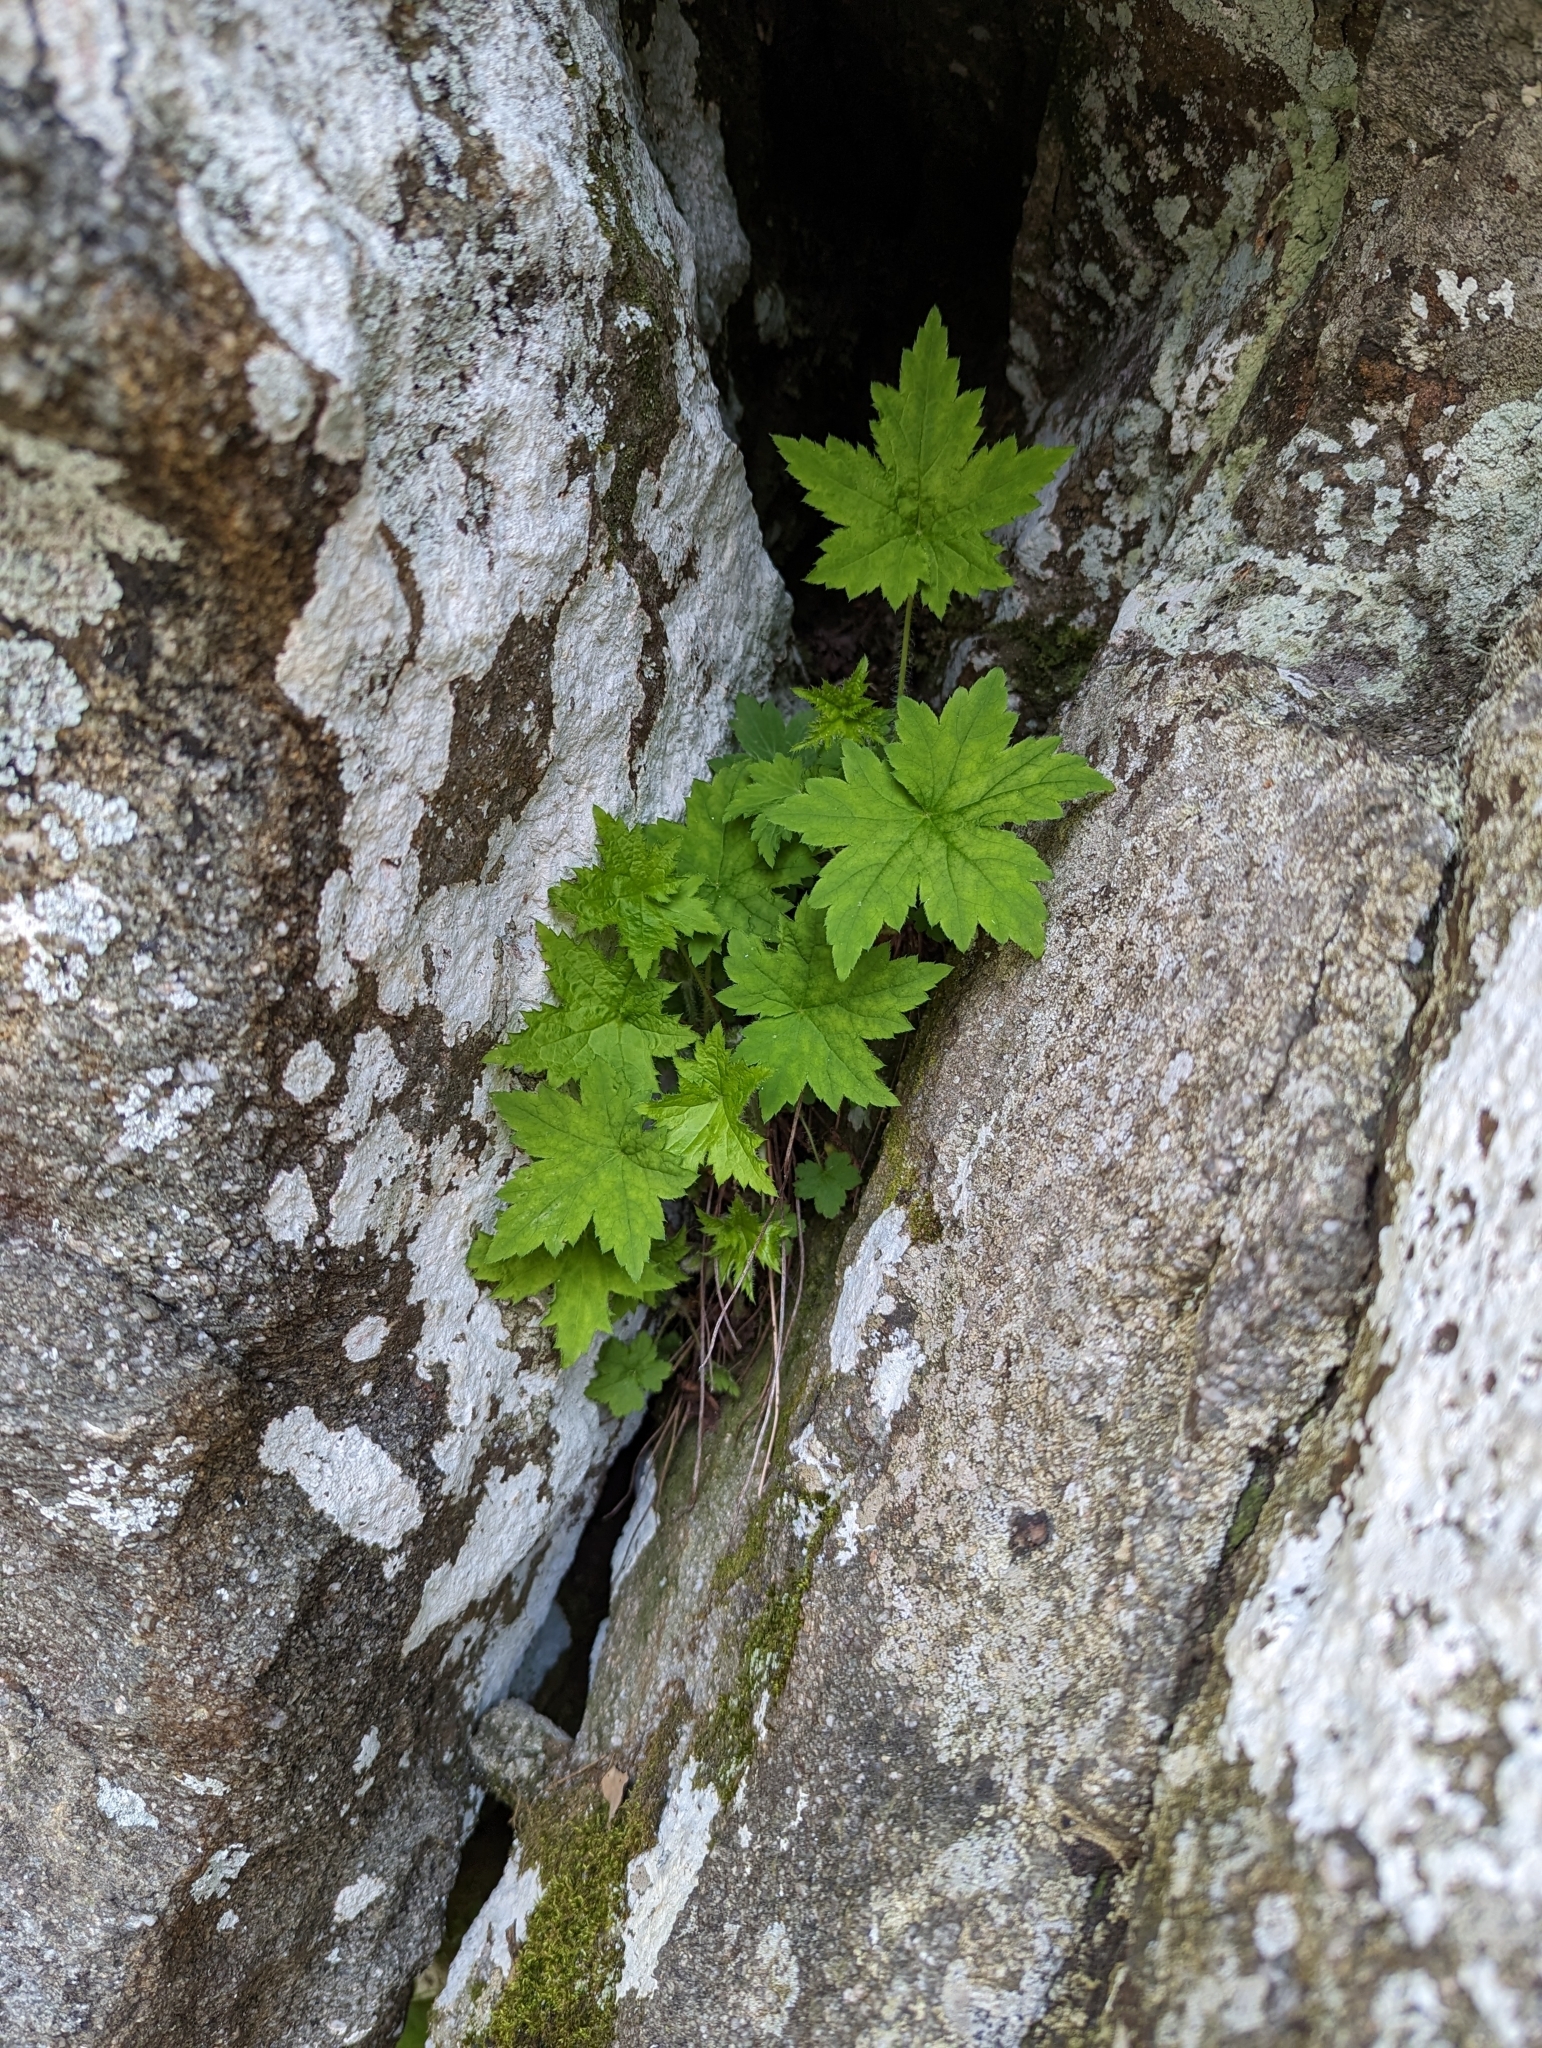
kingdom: Plantae
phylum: Tracheophyta
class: Magnoliopsida
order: Saxifragales
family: Saxifragaceae
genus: Heuchera
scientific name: Heuchera villosa
